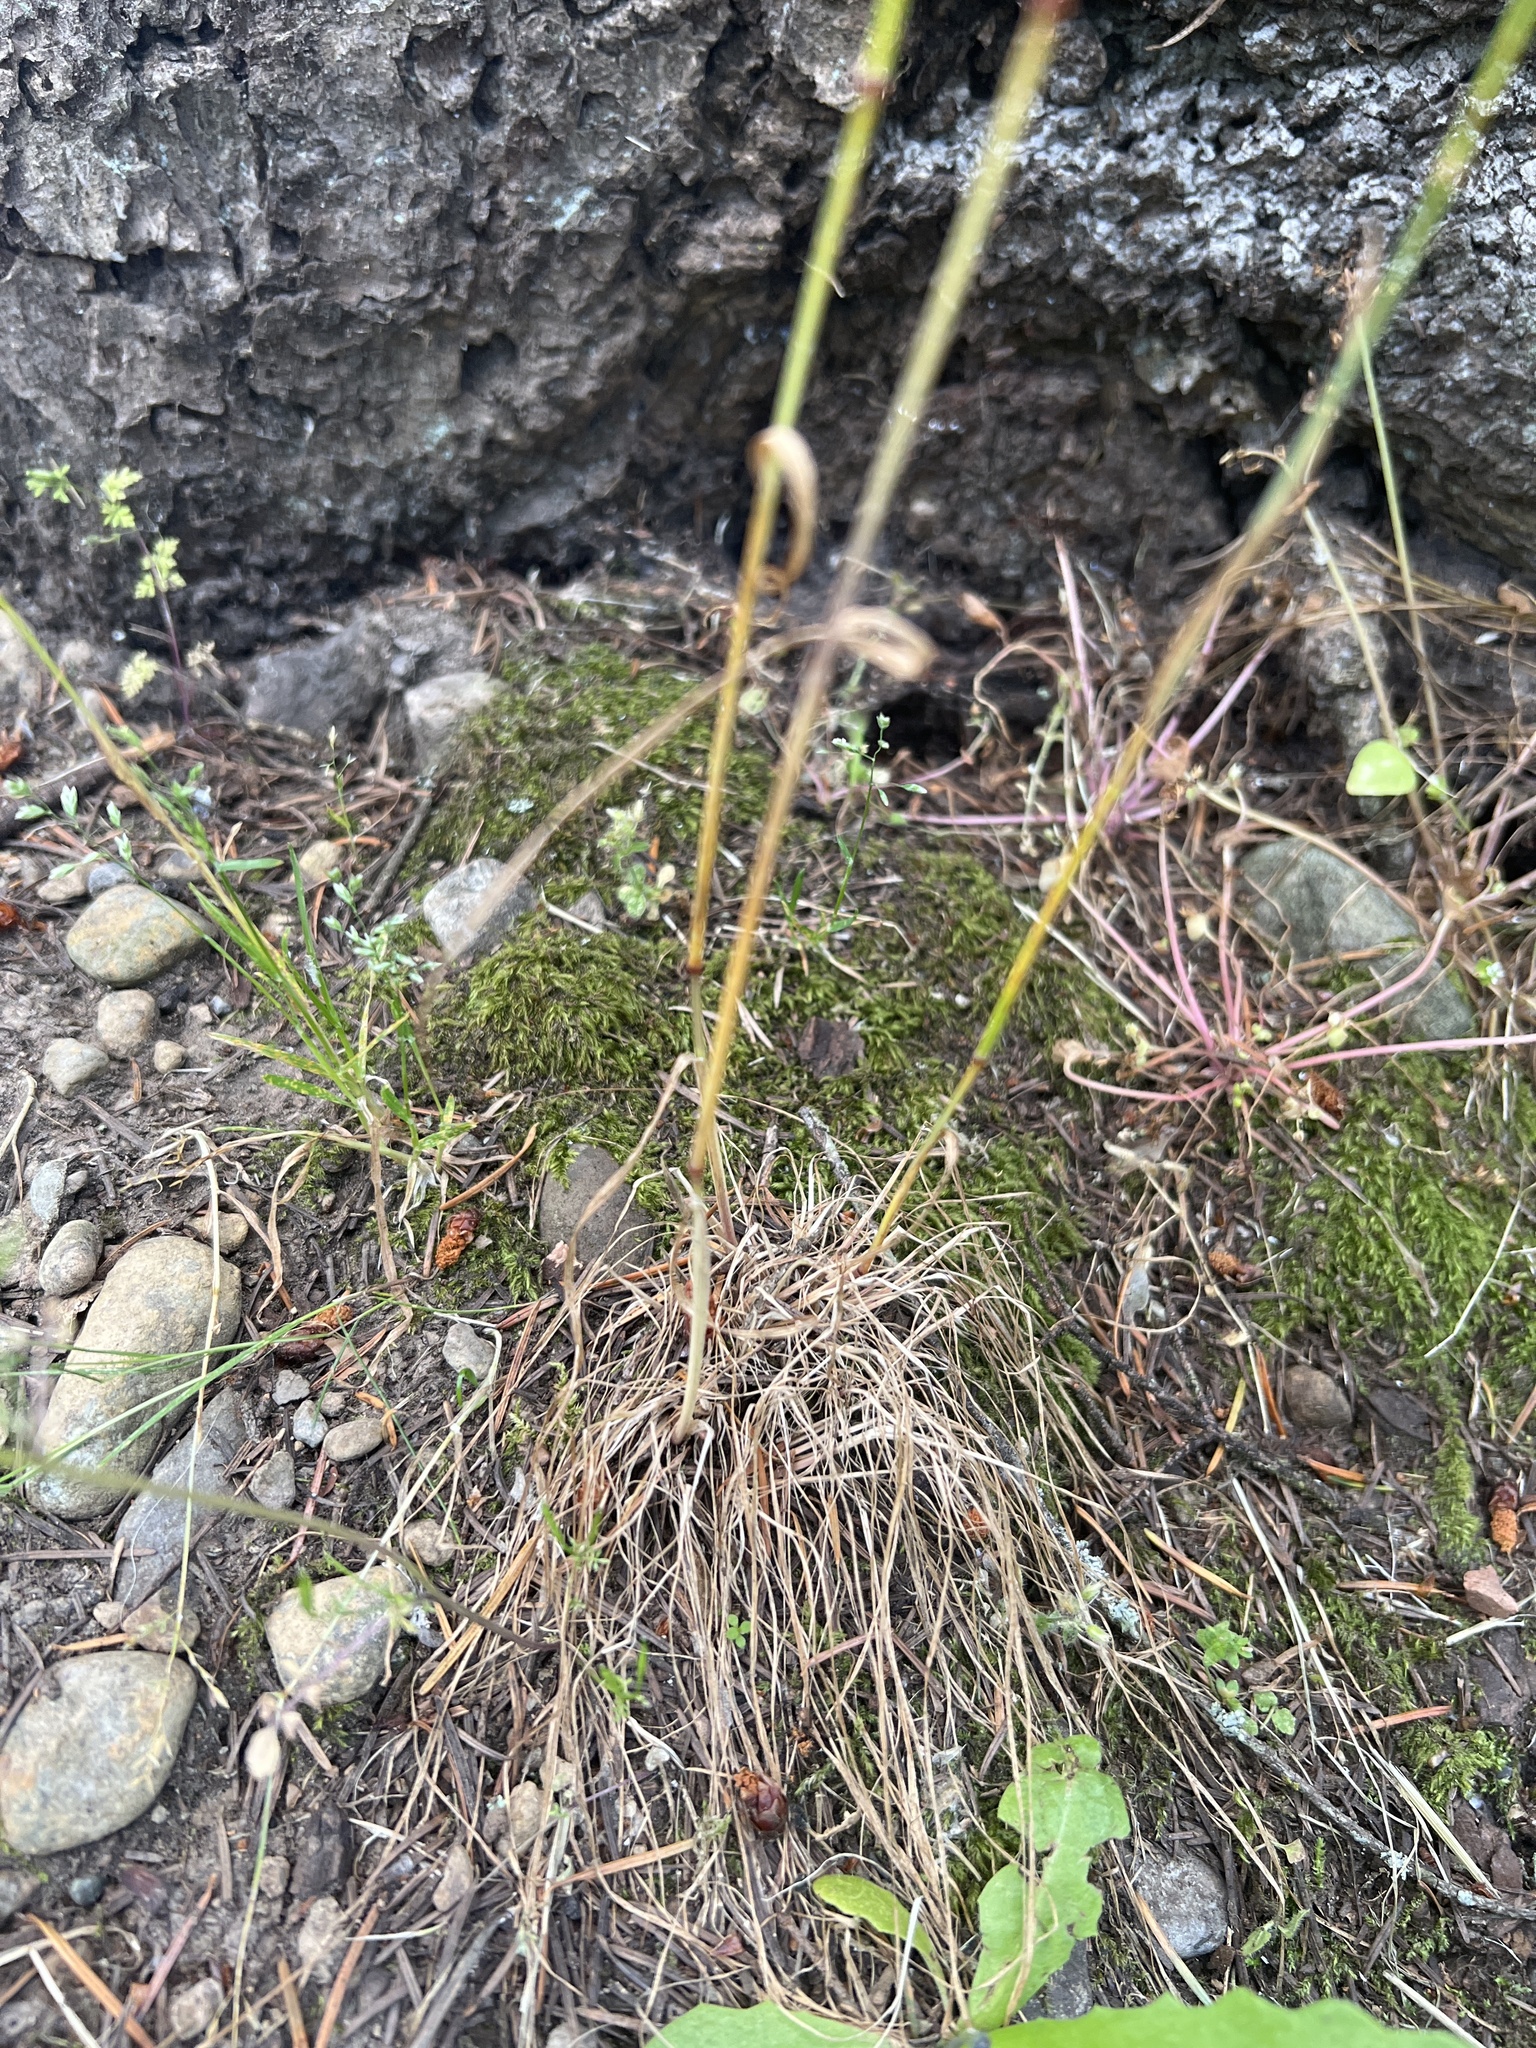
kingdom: Plantae
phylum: Tracheophyta
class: Liliopsida
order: Poales
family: Poaceae
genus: Poa
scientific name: Poa bulbosa
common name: Bulbous bluegrass
